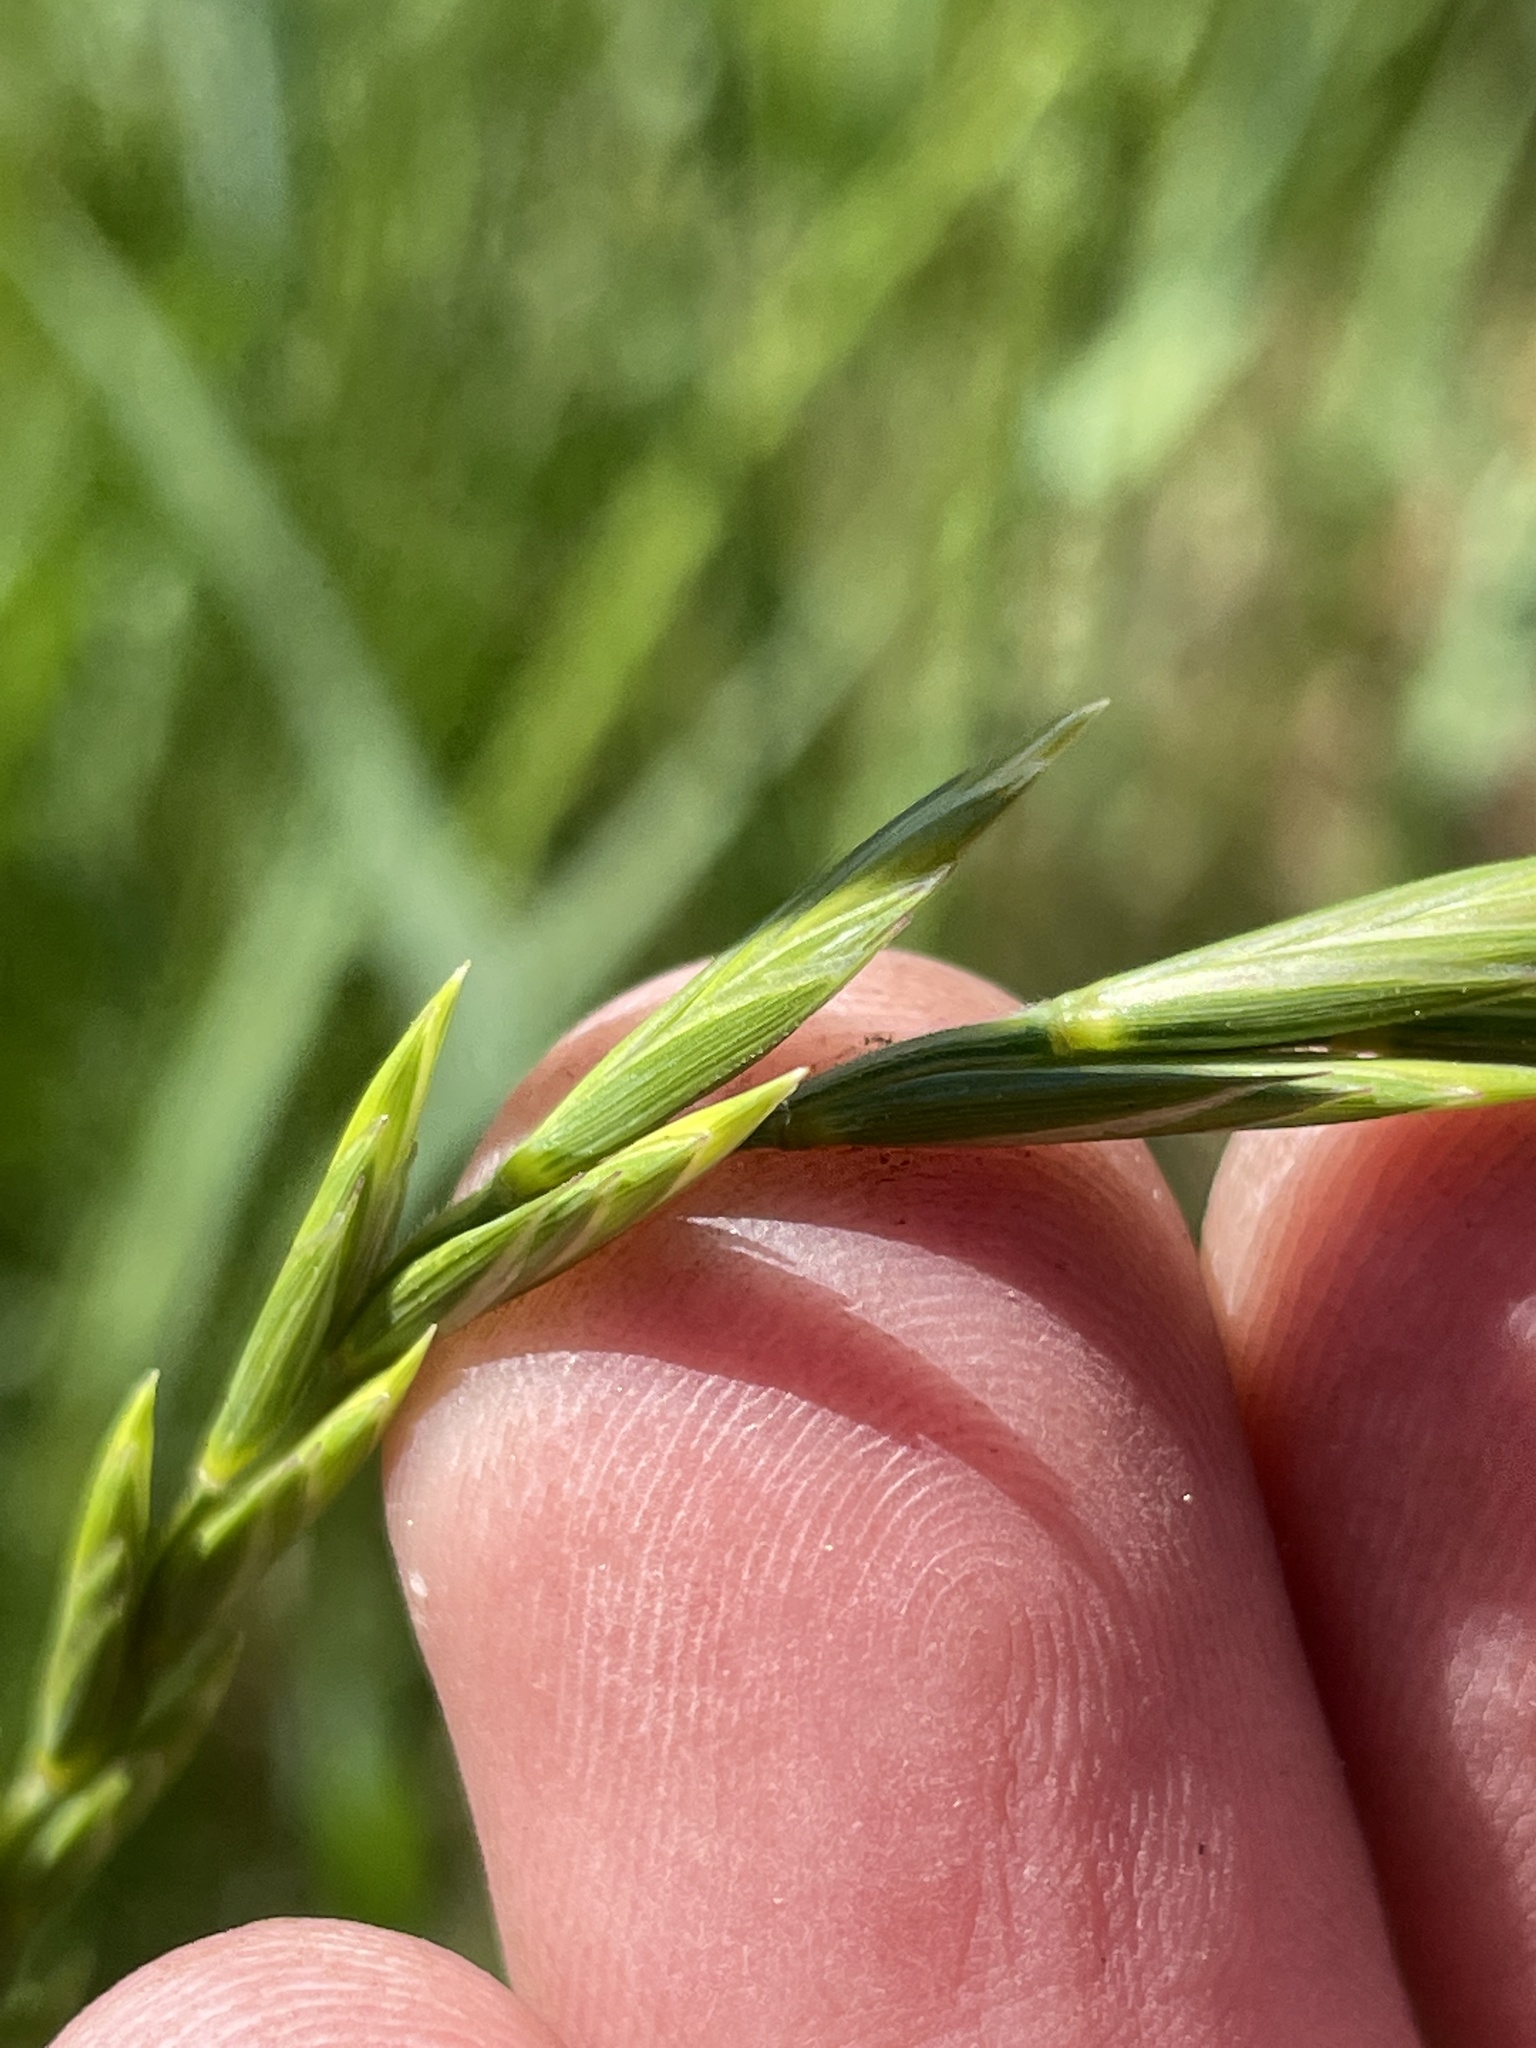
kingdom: Plantae
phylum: Tracheophyta
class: Liliopsida
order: Poales
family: Poaceae
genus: Elymus
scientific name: Elymus repens
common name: Quackgrass
